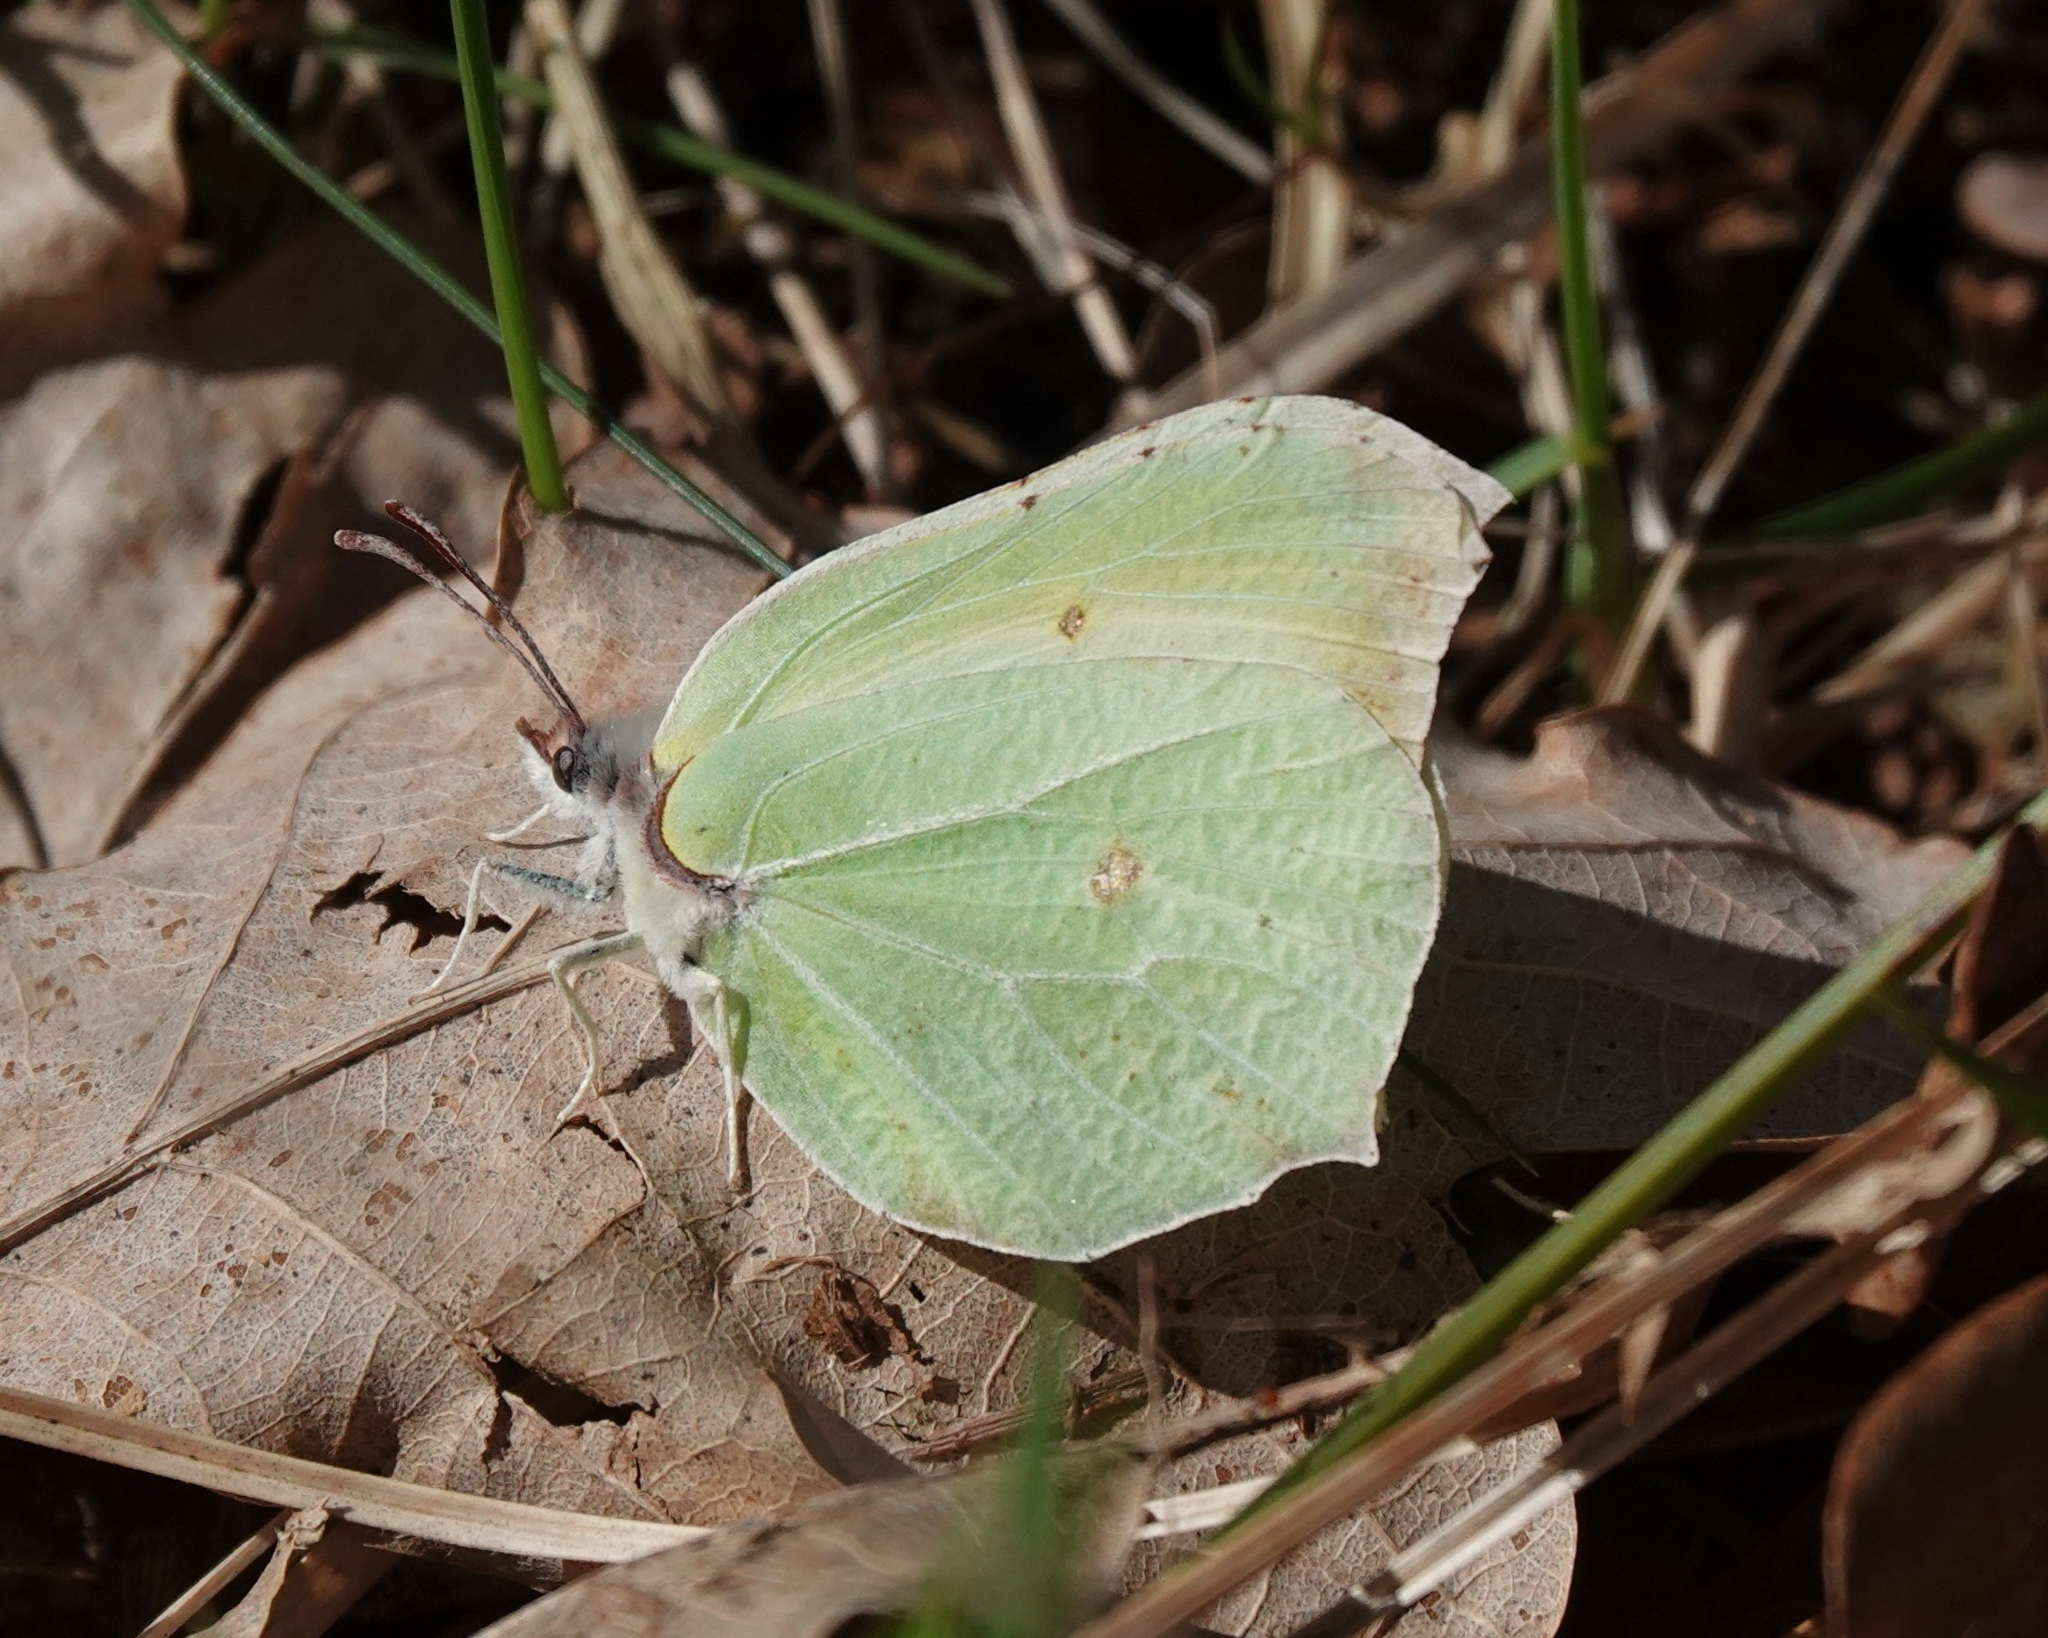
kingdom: Animalia
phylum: Arthropoda
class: Insecta
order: Lepidoptera
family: Pieridae
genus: Gonepteryx
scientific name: Gonepteryx rhamni
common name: Brimstone
